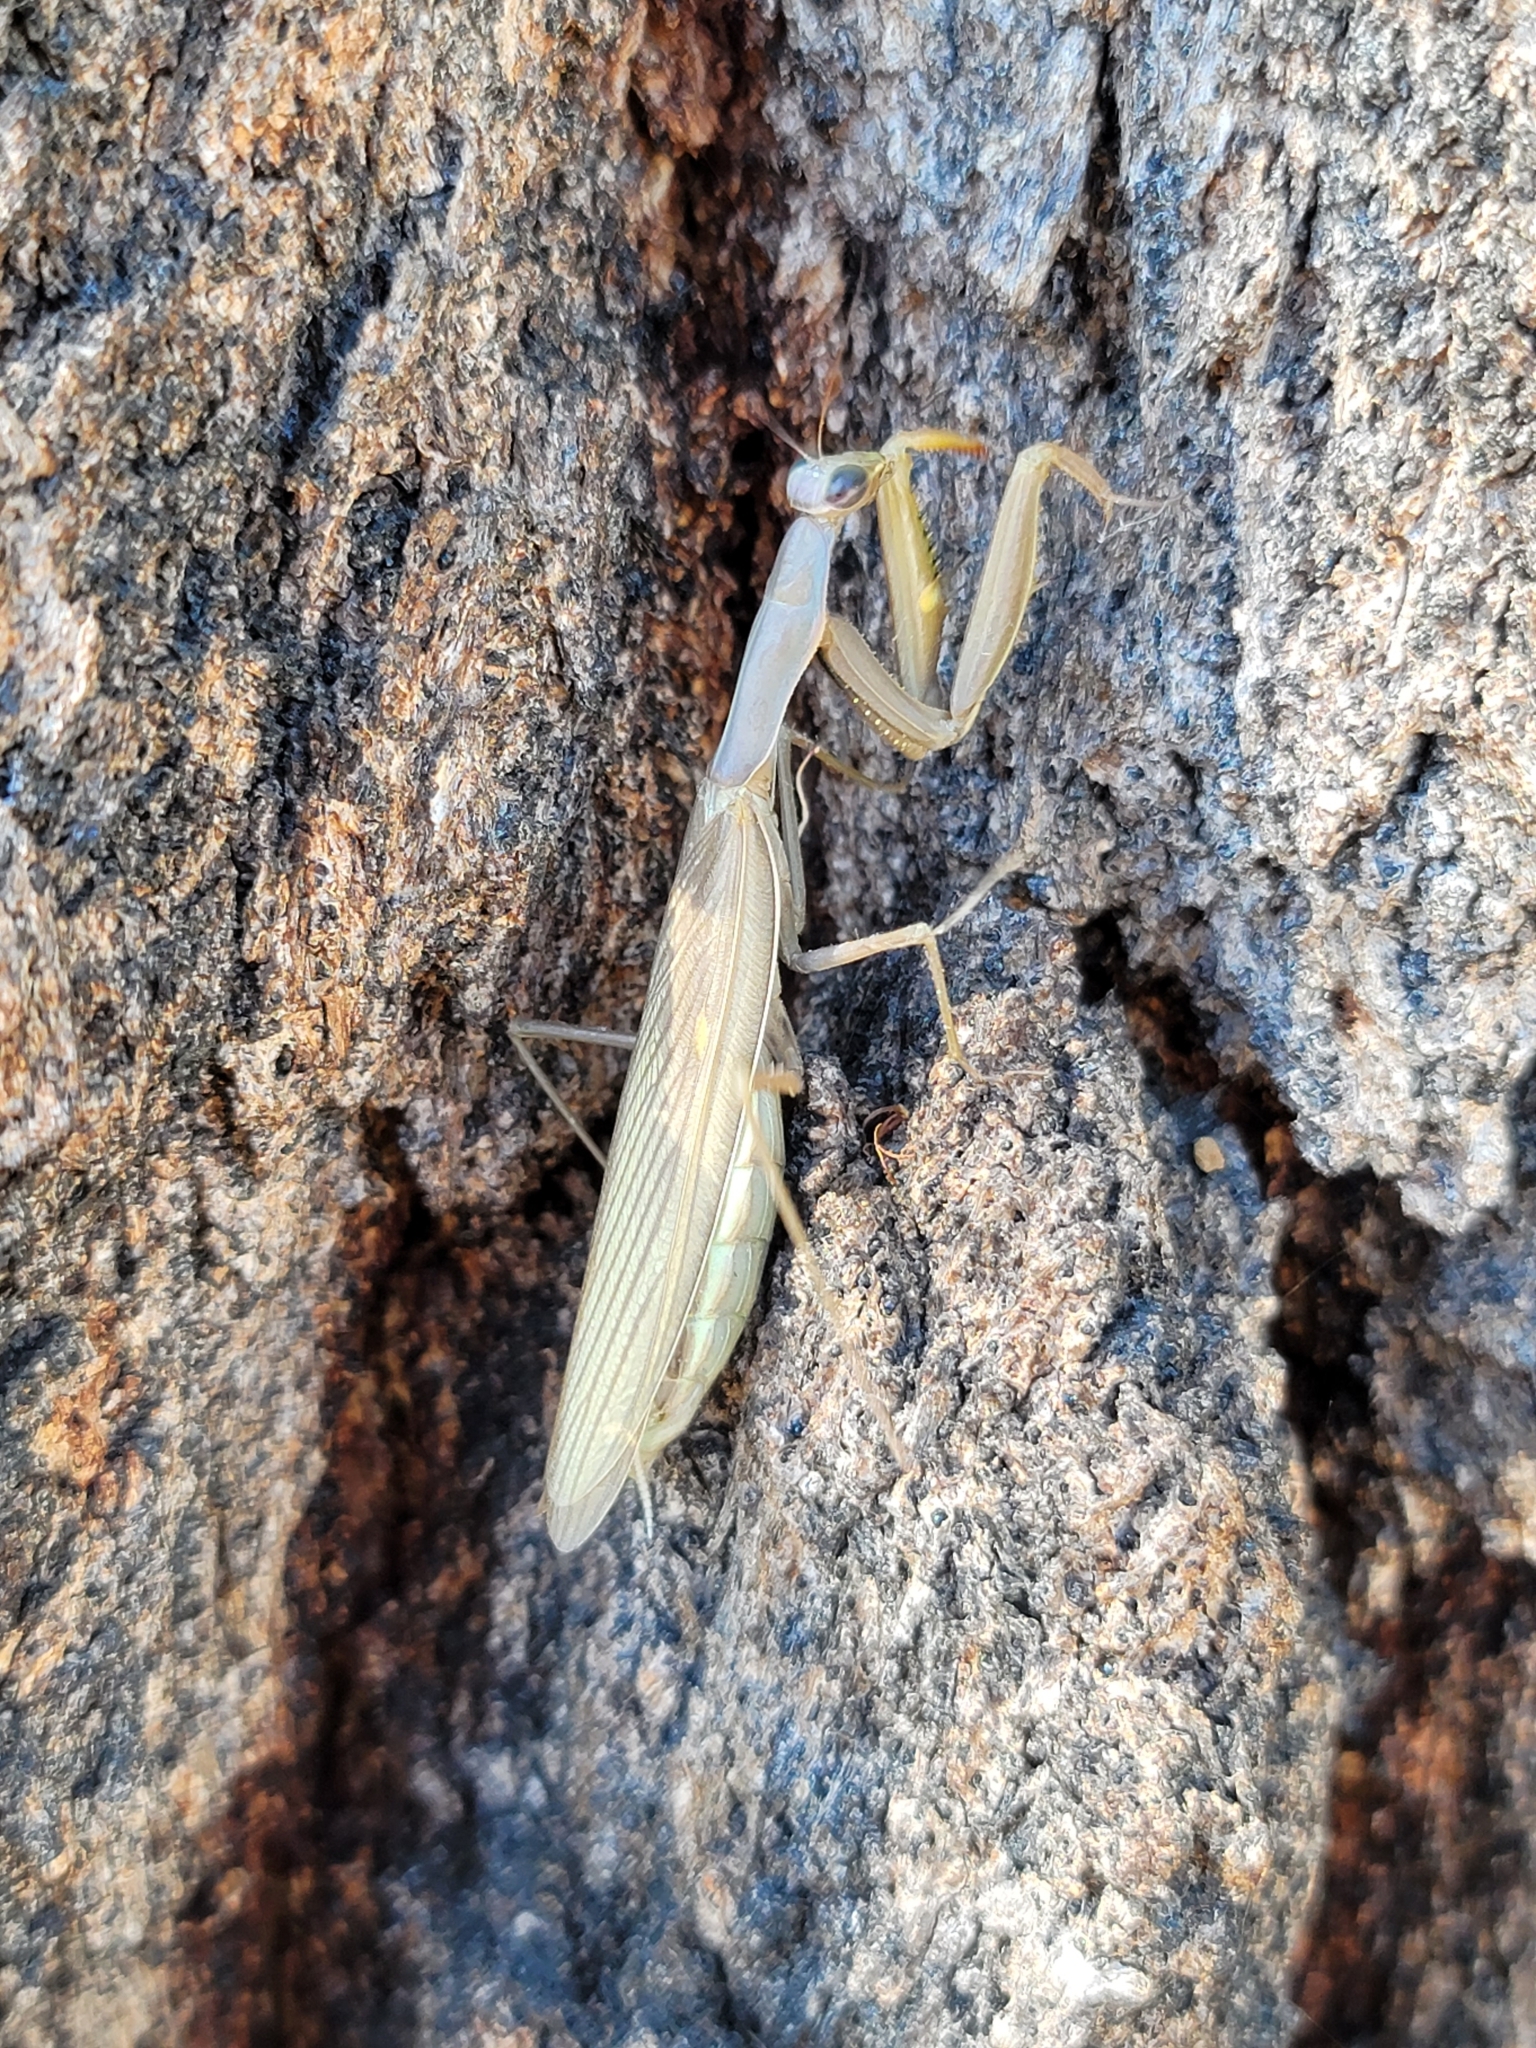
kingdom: Animalia
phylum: Arthropoda
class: Insecta
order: Mantodea
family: Mantidae
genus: Mantis
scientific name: Mantis religiosa
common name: Praying mantis
